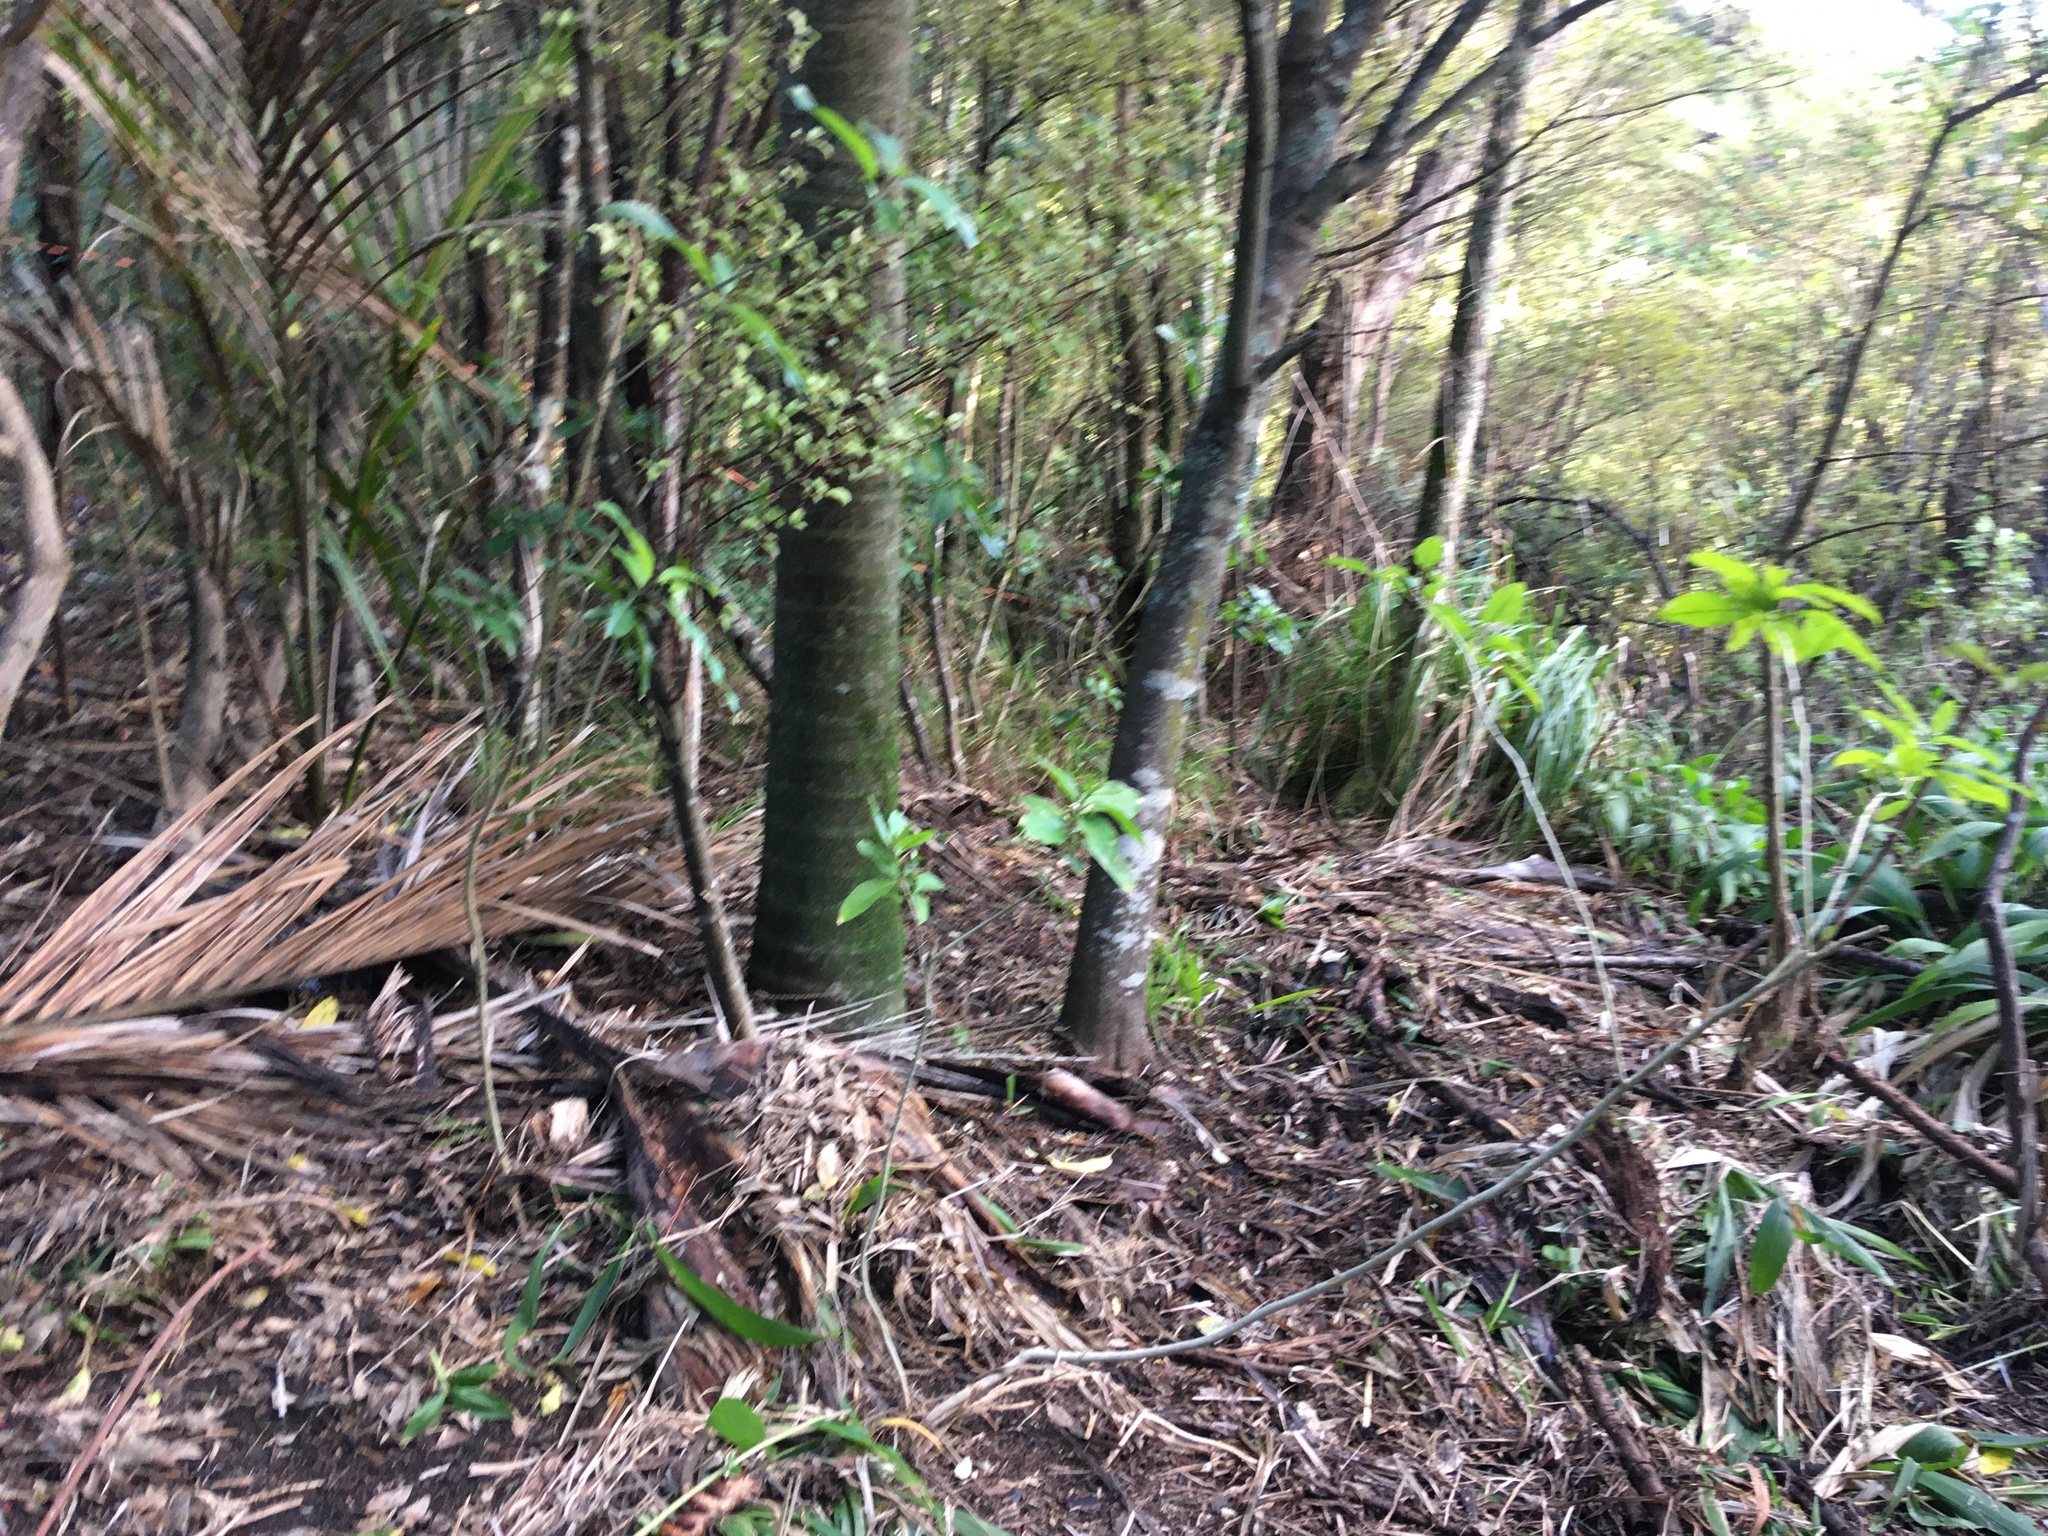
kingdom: Plantae
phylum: Tracheophyta
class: Liliopsida
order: Arecales
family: Arecaceae
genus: Rhopalostylis
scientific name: Rhopalostylis sapida
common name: Feather-duster palm
